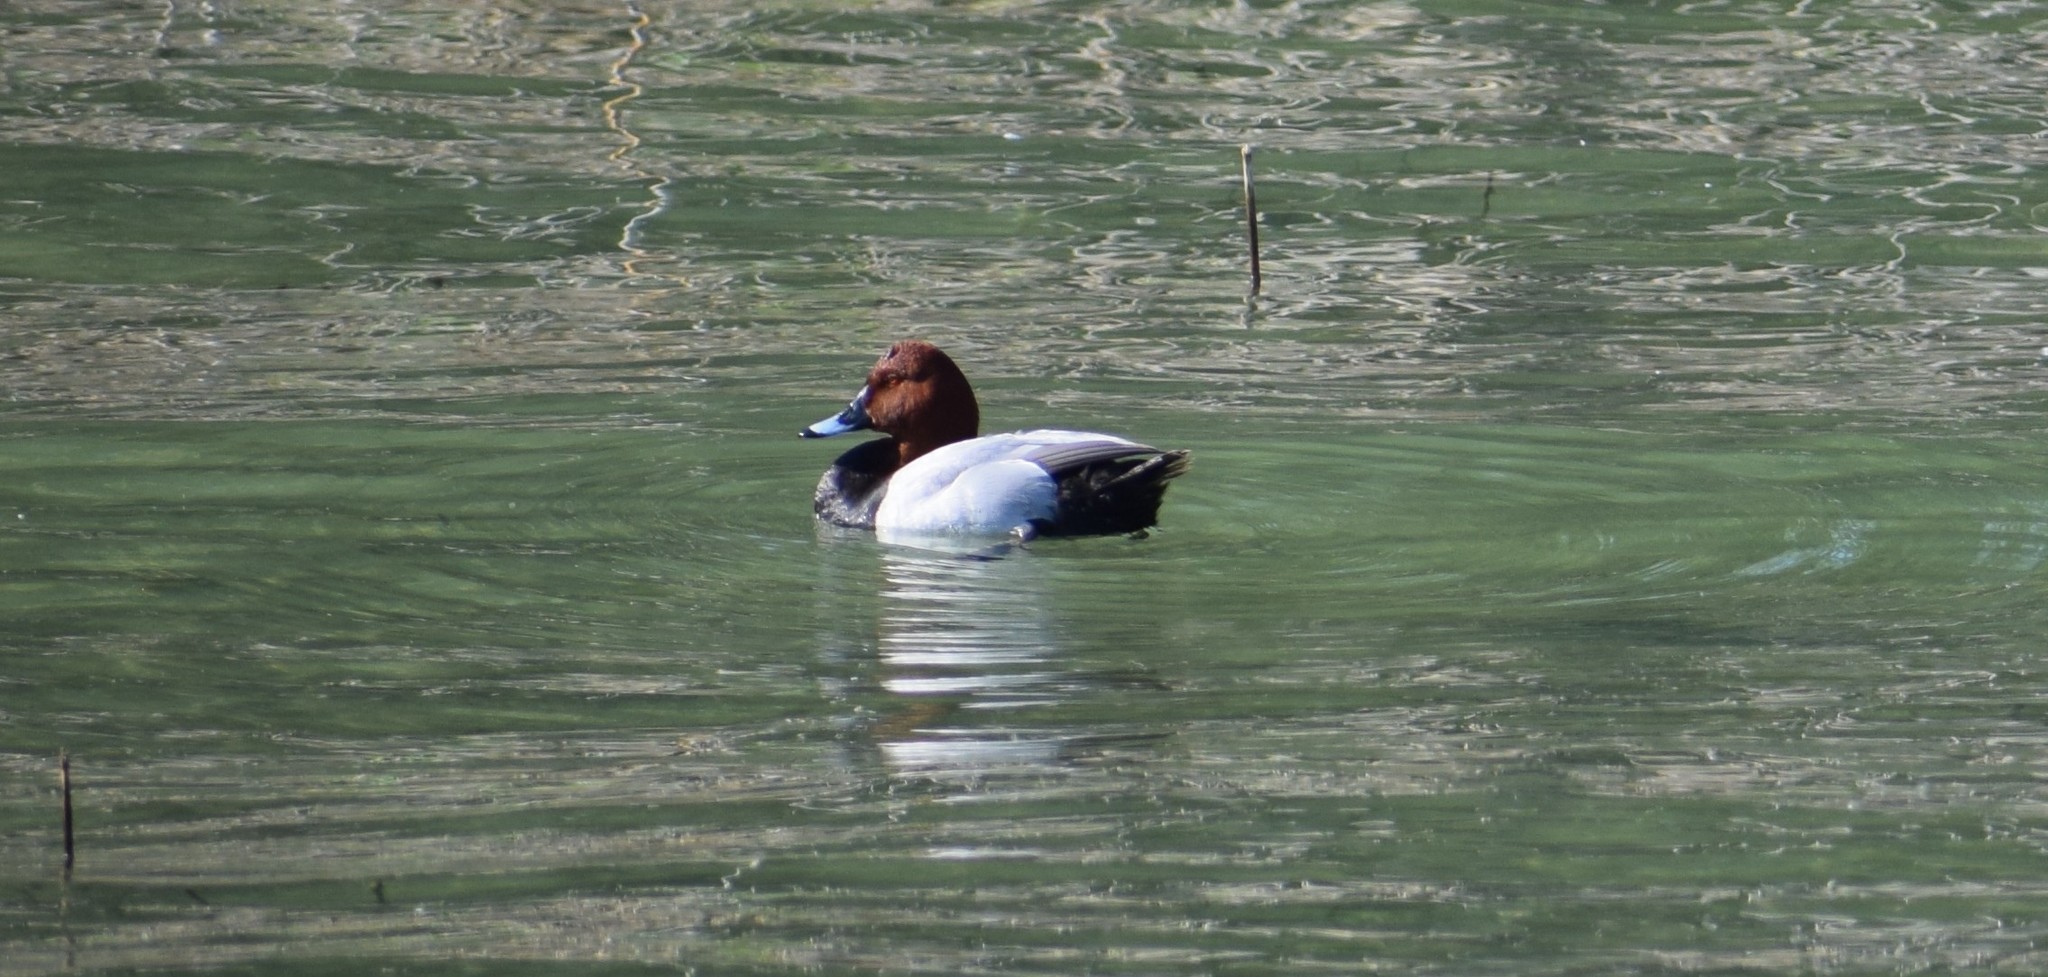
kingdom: Animalia
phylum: Chordata
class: Aves
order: Anseriformes
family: Anatidae
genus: Aythya
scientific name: Aythya ferina
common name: Common pochard
